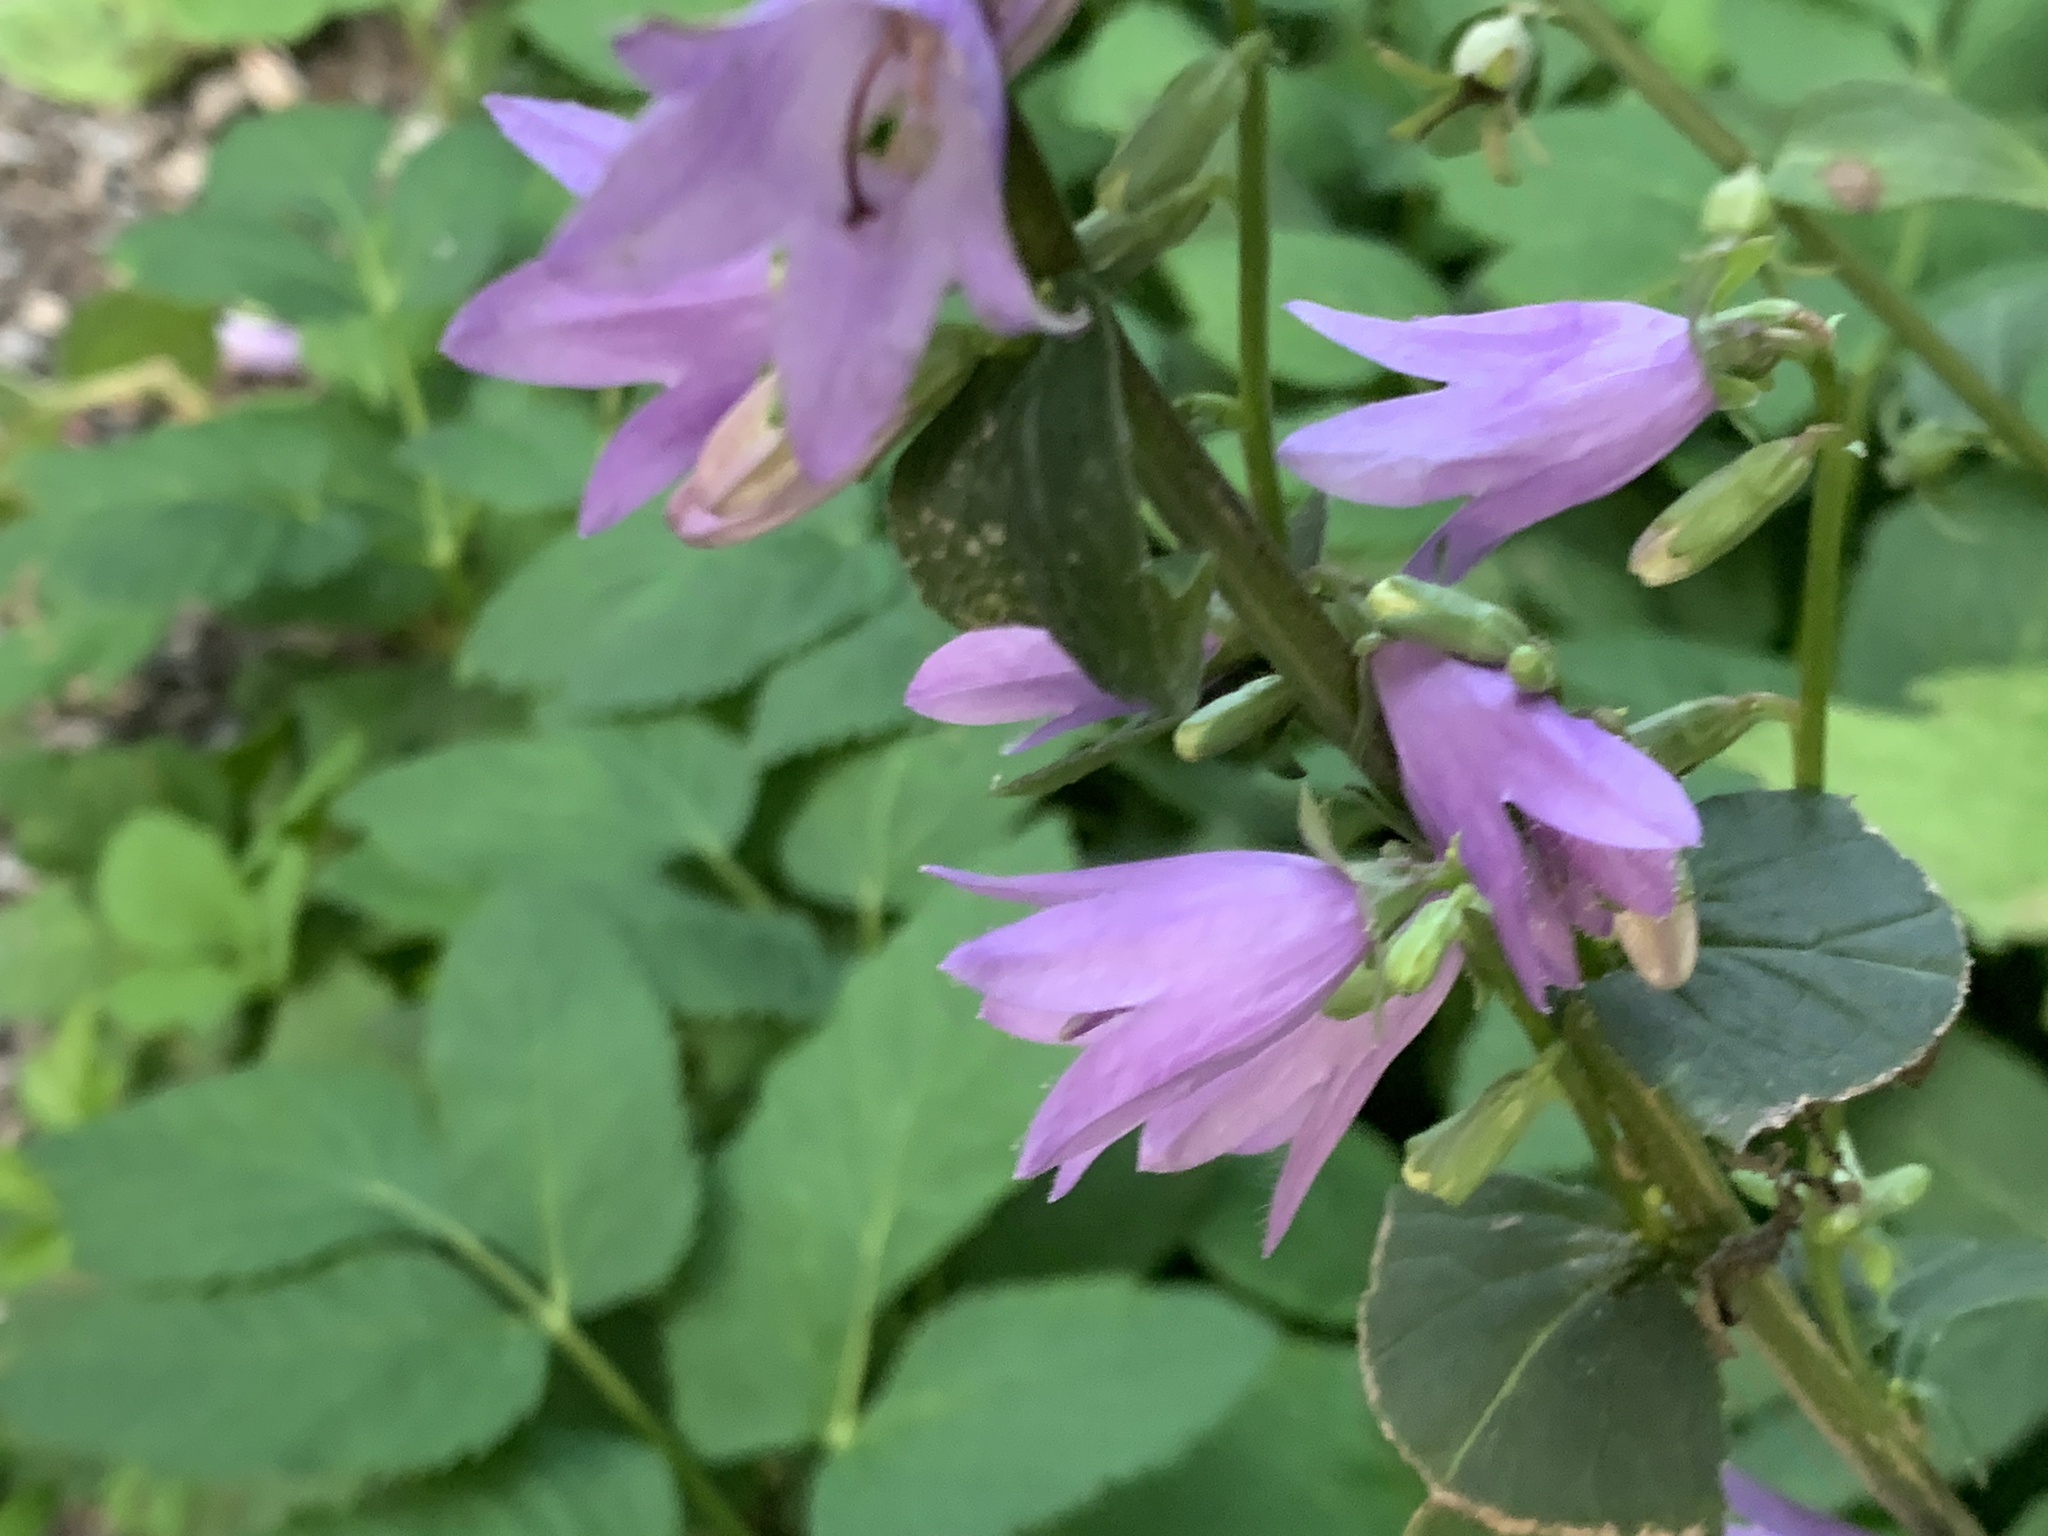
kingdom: Plantae
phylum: Tracheophyta
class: Magnoliopsida
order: Asterales
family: Campanulaceae
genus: Campanula
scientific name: Campanula rapunculoides
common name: Creeping bellflower
